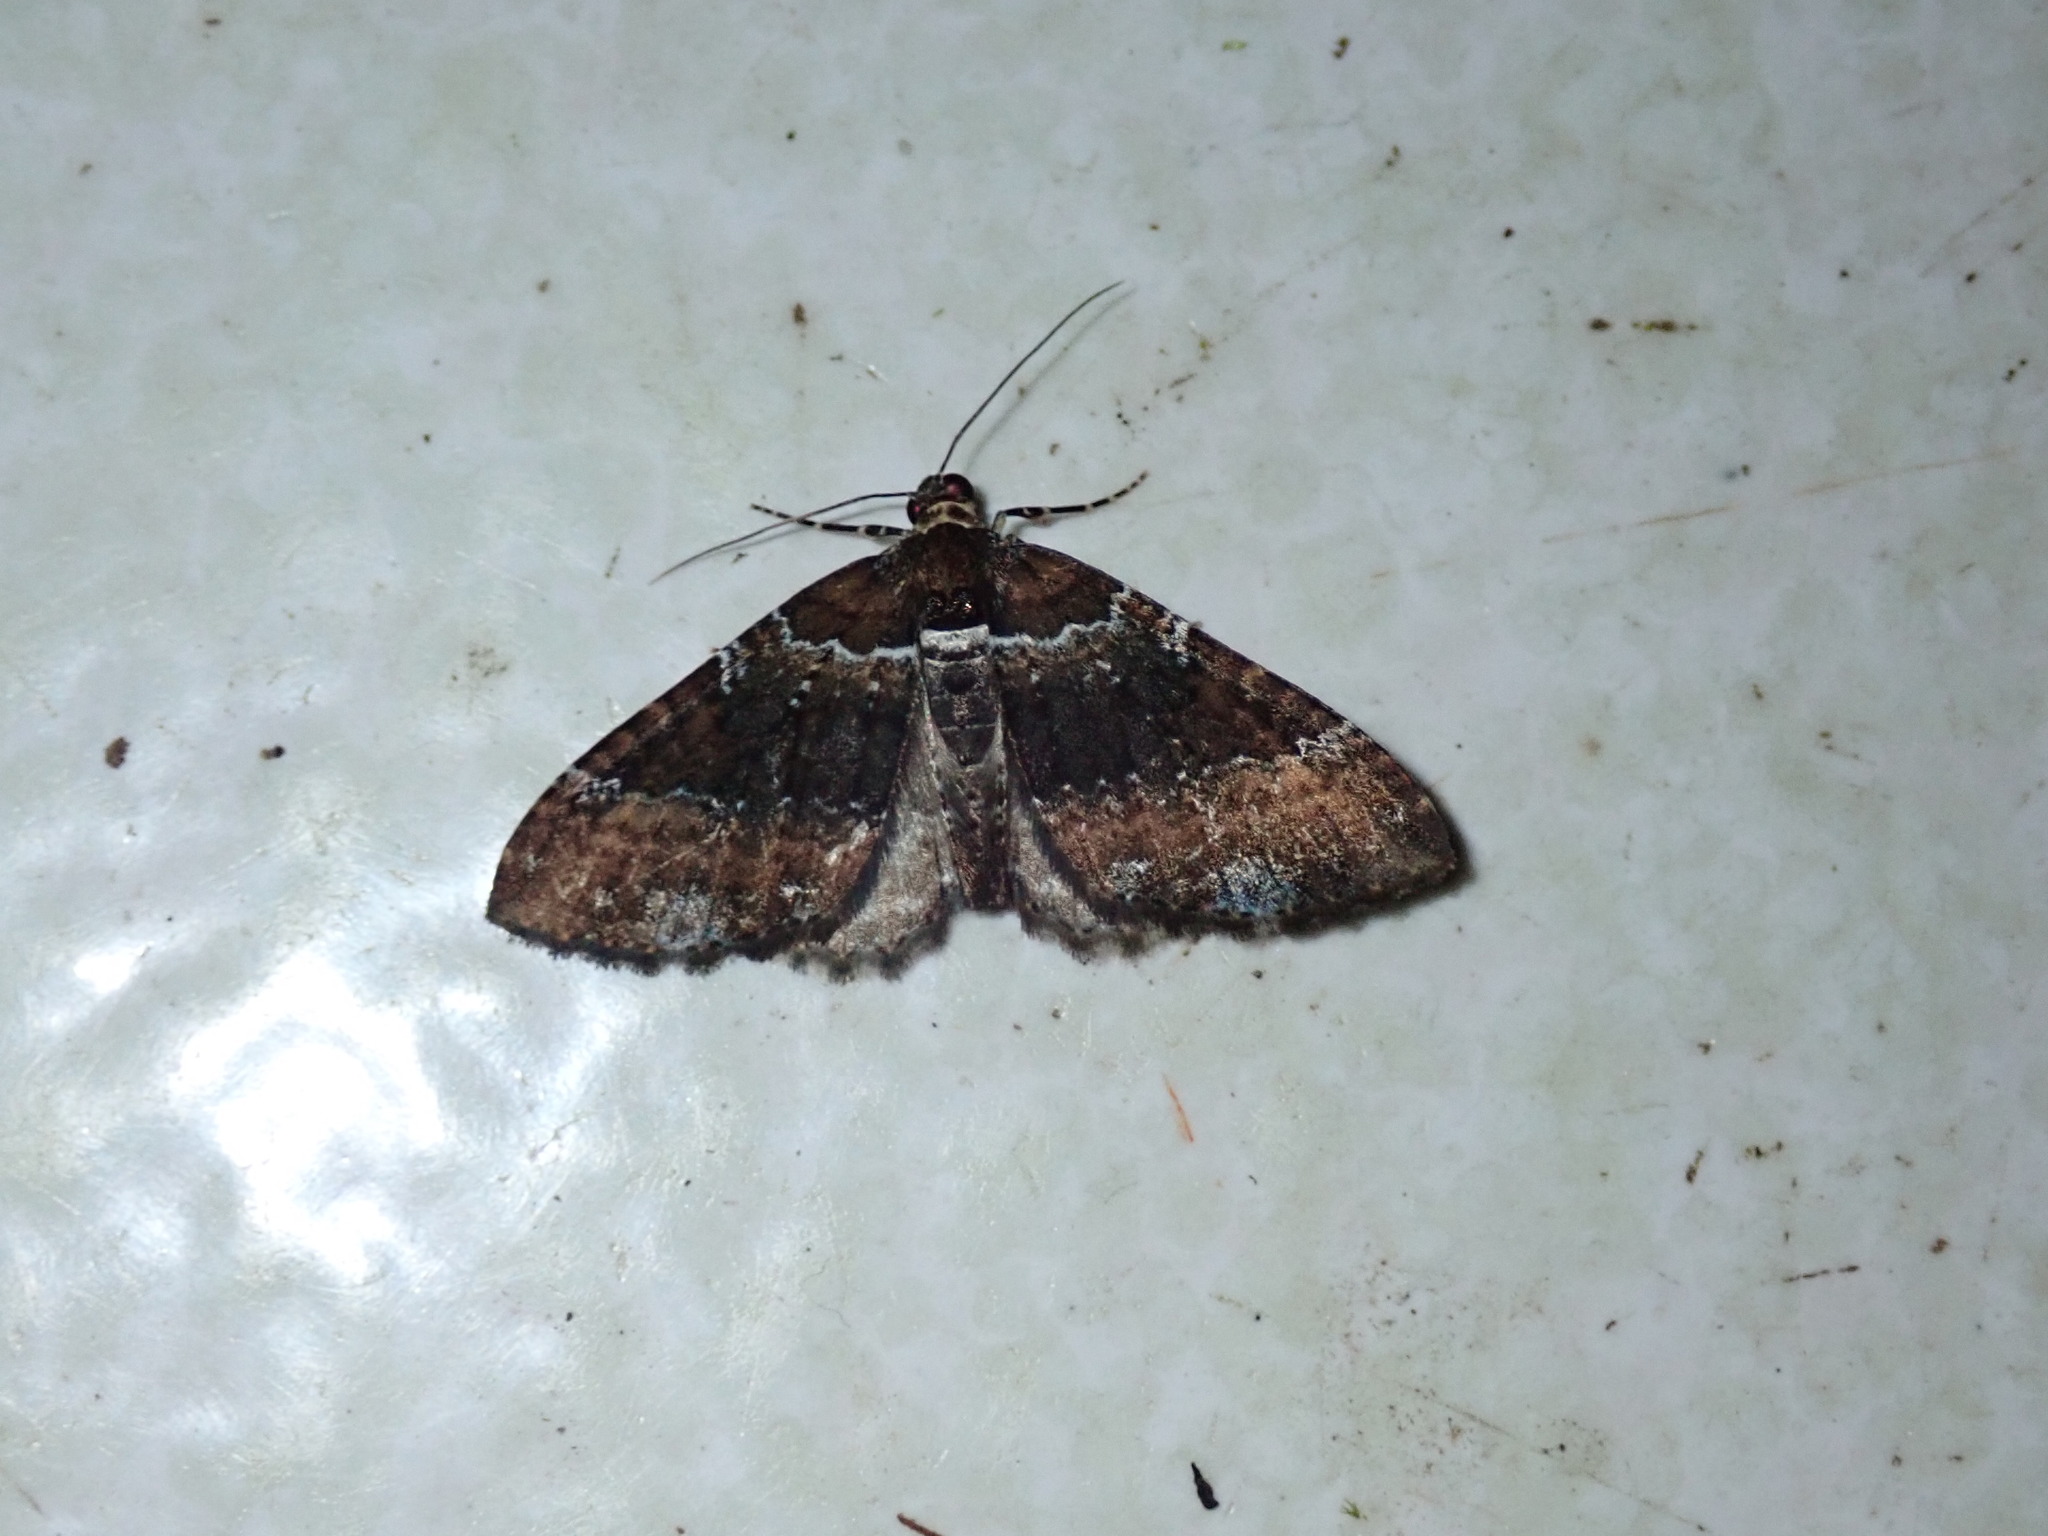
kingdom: Animalia
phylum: Arthropoda
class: Insecta
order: Lepidoptera
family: Geometridae
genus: Melanthia
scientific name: Melanthia catenaria
